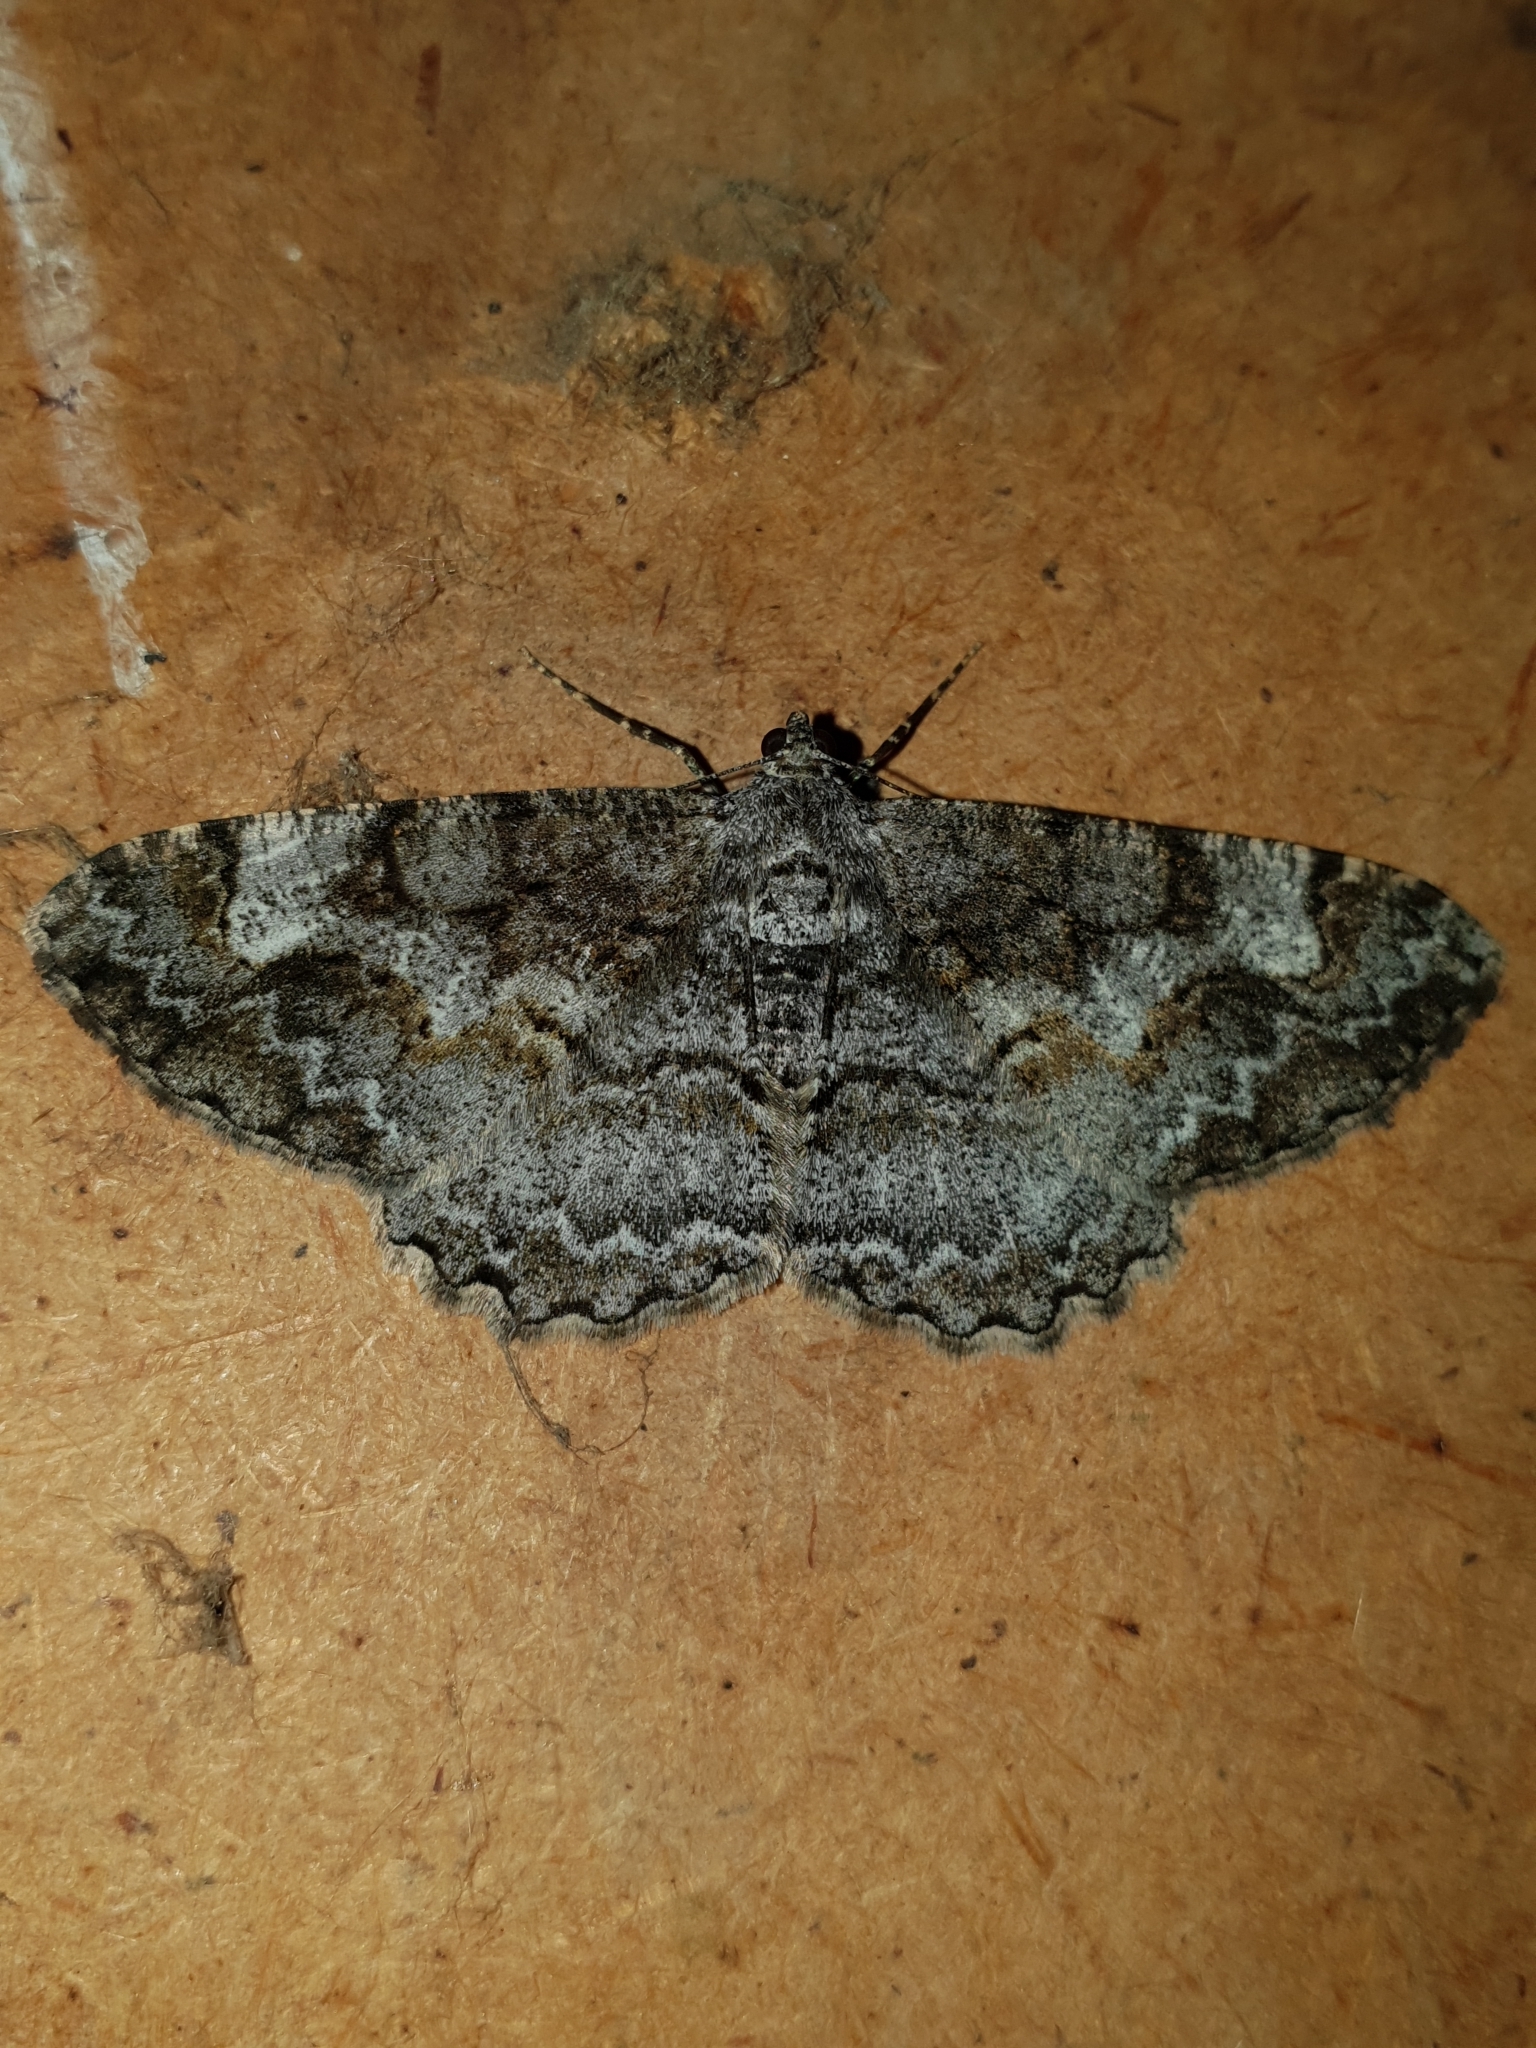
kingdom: Animalia
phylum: Arthropoda
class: Insecta
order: Lepidoptera
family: Geometridae
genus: Alcis
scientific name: Alcis repandata
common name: Mottled beauty
